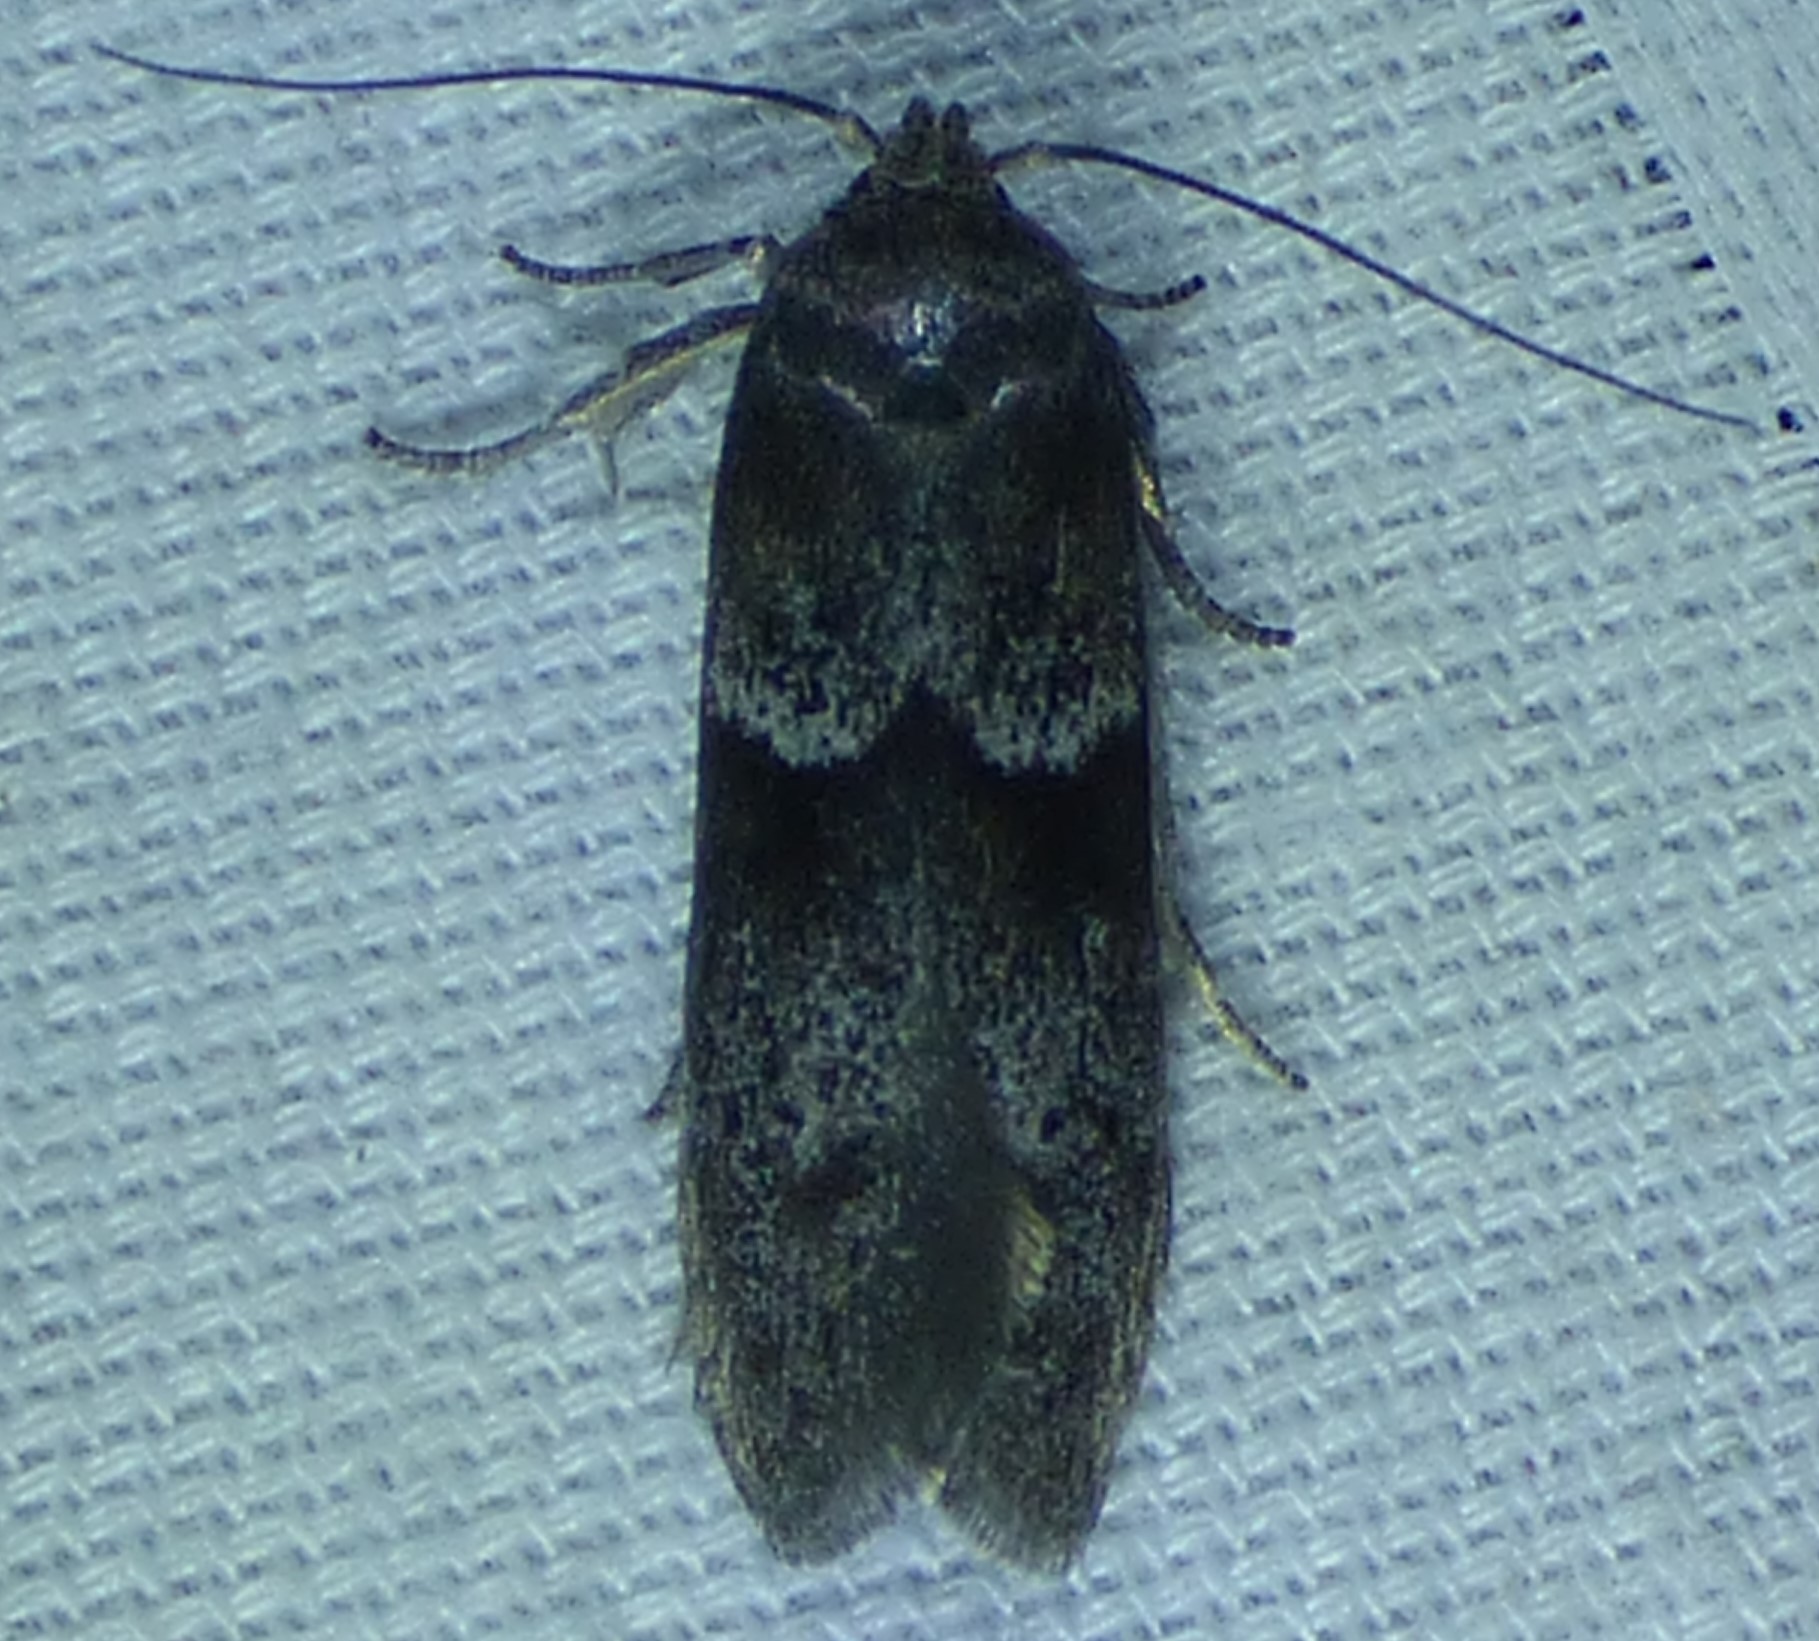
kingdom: Animalia
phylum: Arthropoda
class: Insecta
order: Lepidoptera
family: Blastobasidae
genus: Blastobasis
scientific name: Blastobasis glandulella
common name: Acorn moth
